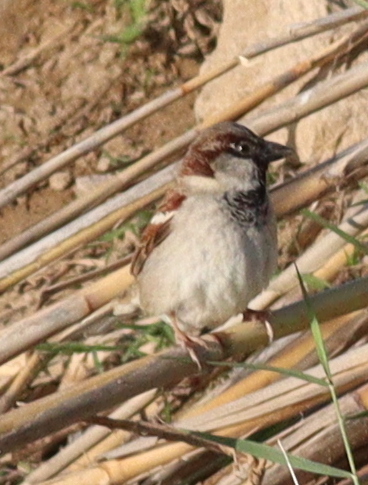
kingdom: Animalia
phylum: Chordata
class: Aves
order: Passeriformes
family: Passeridae
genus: Passer
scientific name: Passer domesticus
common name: House sparrow
